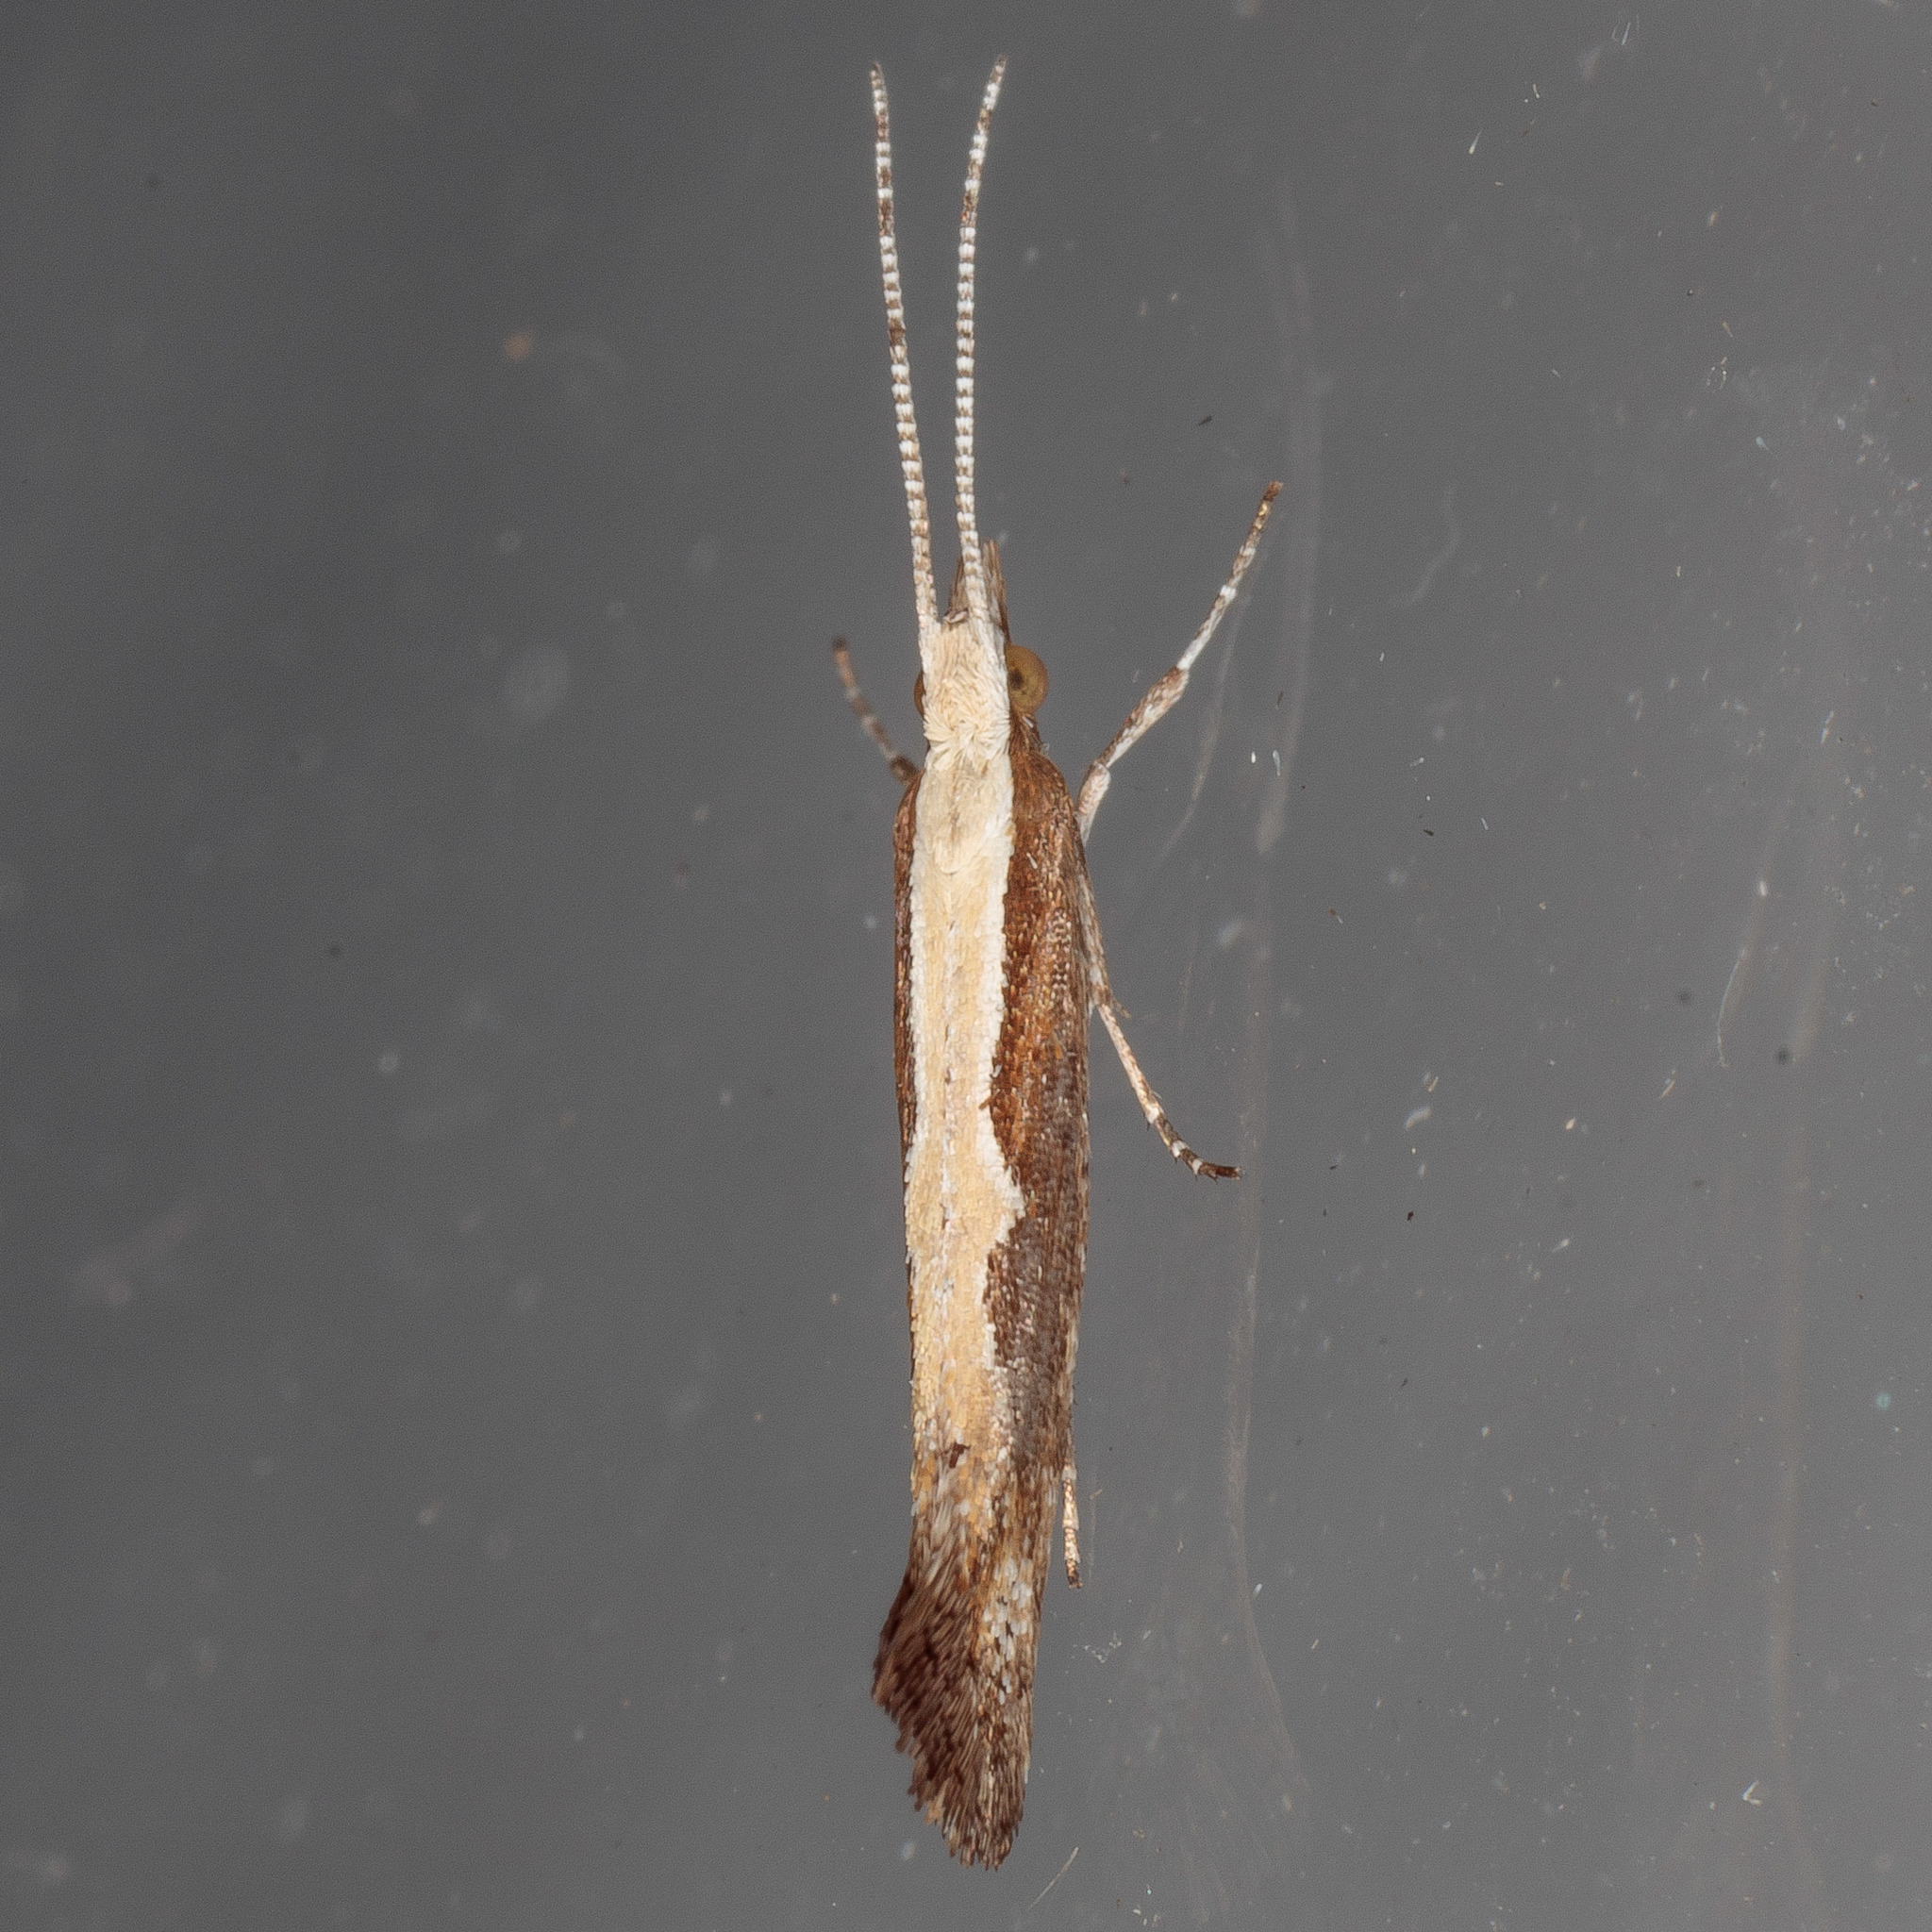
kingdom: Animalia
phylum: Arthropoda
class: Insecta
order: Lepidoptera
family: Plutellidae
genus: Plutella
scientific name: Plutella xylostella
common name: Diamond-back moth
